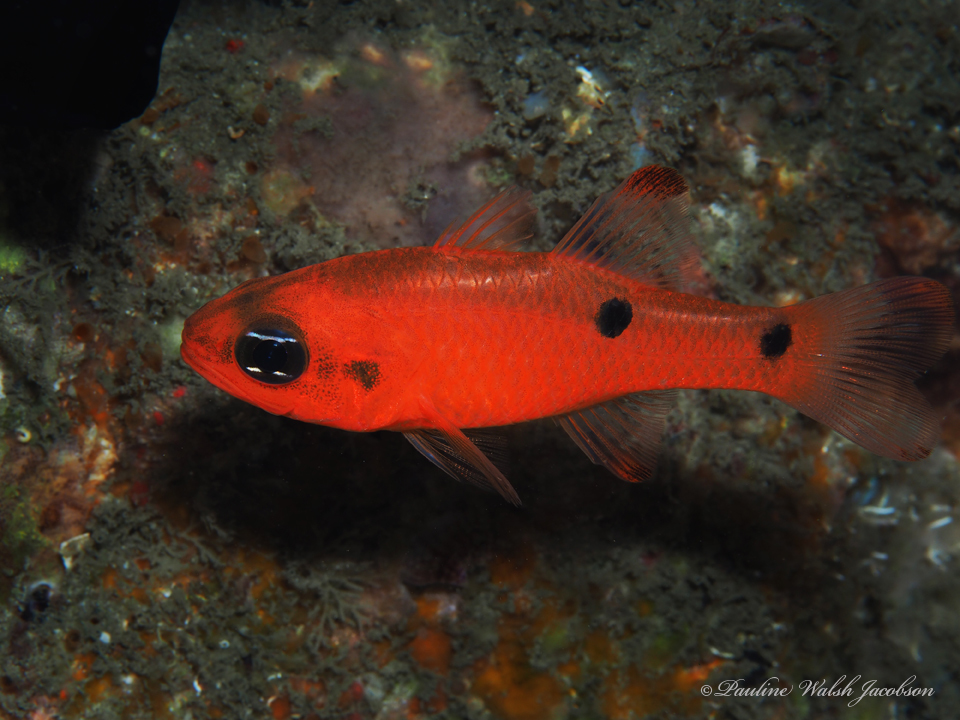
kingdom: Animalia
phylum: Chordata
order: Perciformes
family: Apogonidae
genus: Apogon
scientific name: Apogon pseudomaculatus
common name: Twospot cardinalfish
